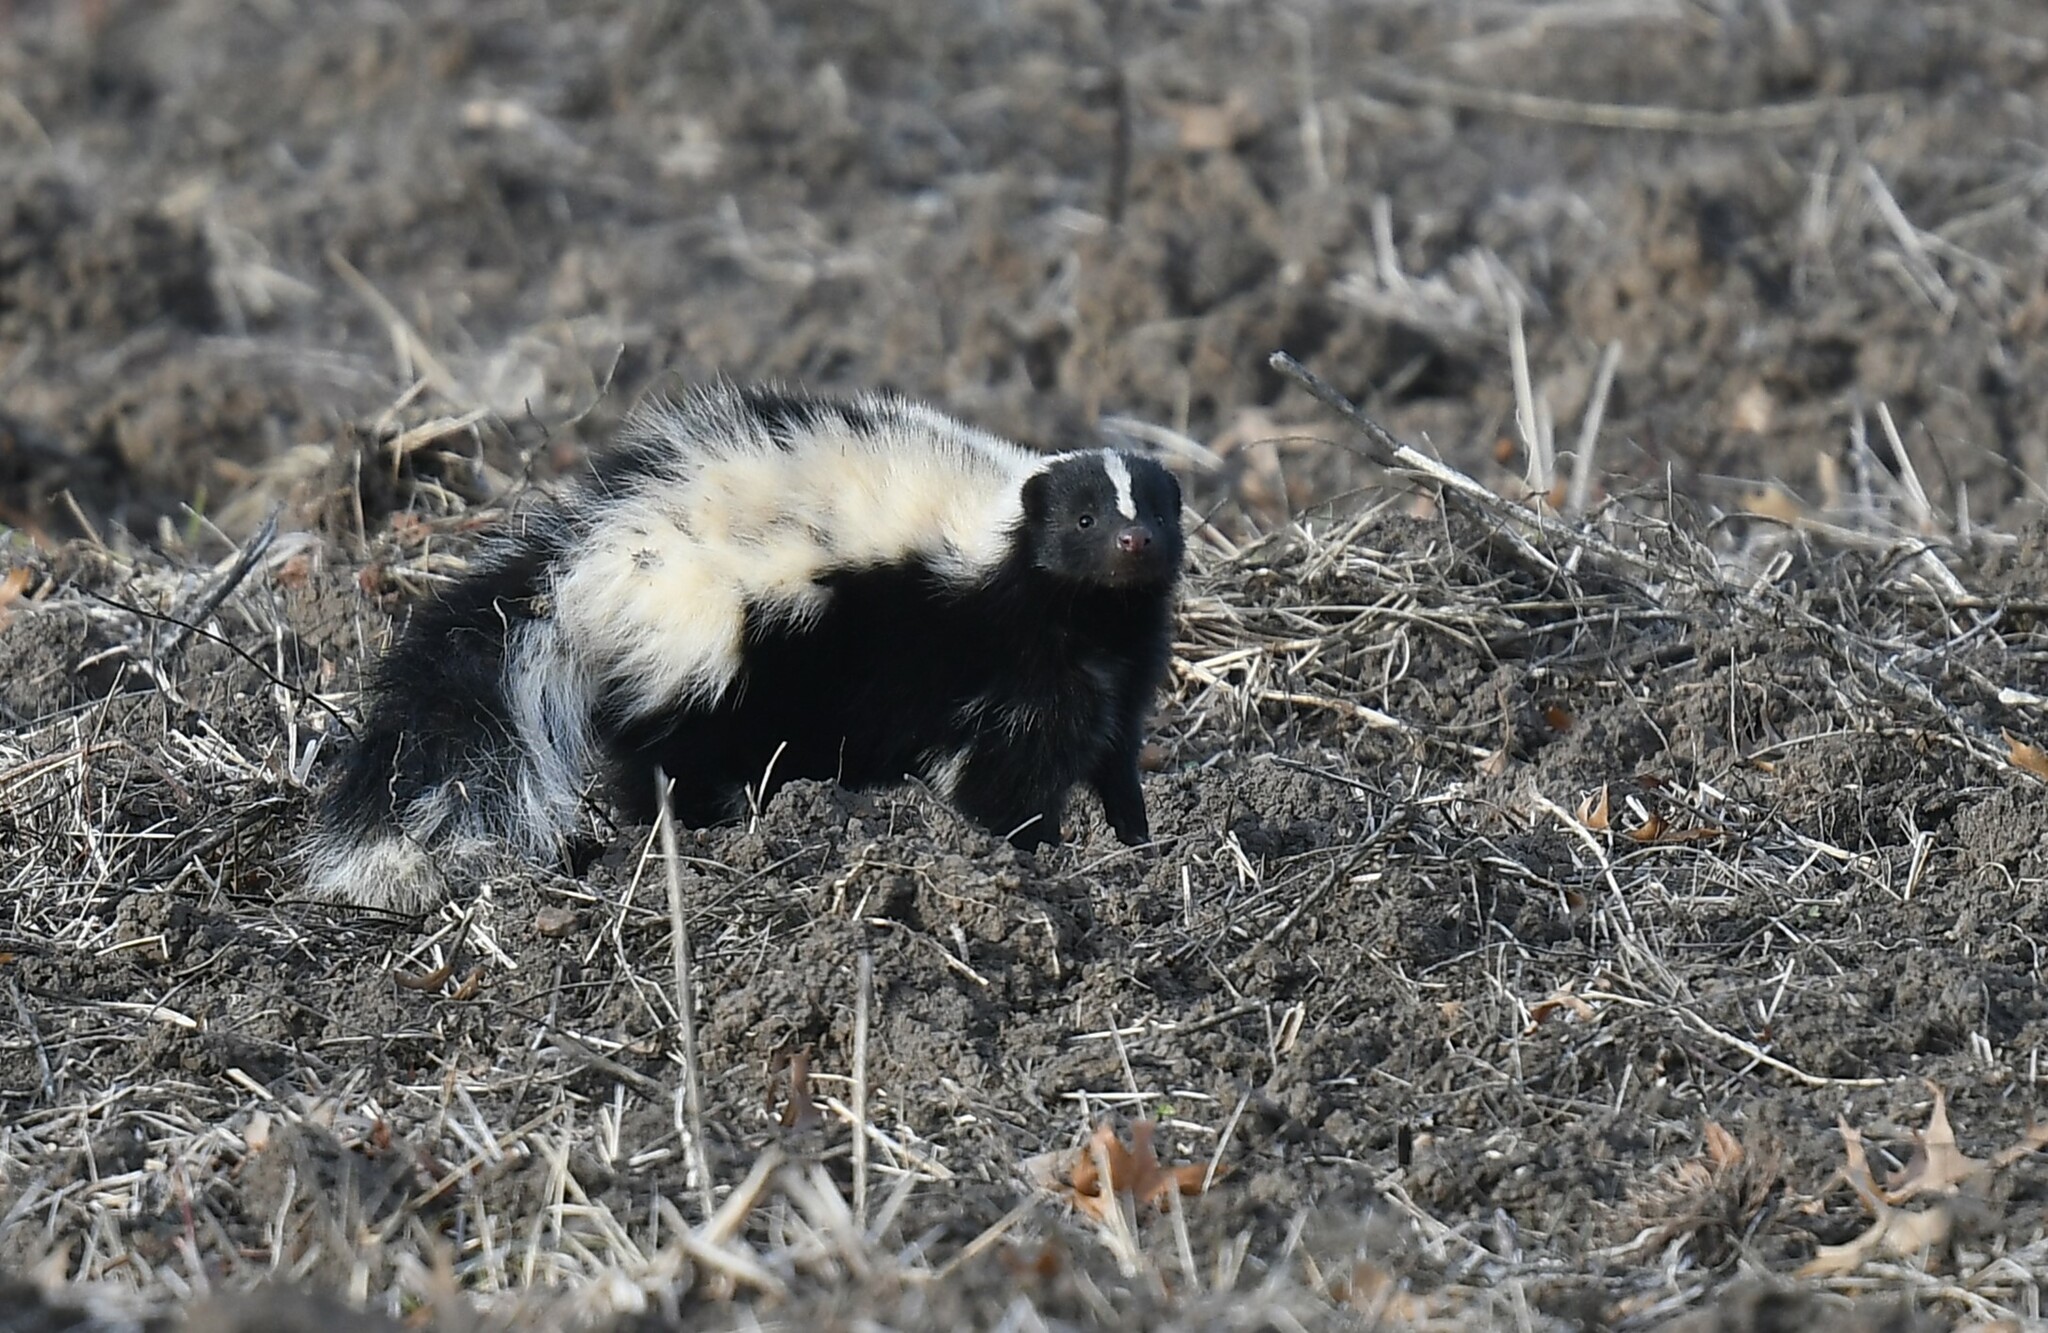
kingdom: Animalia
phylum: Chordata
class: Mammalia
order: Carnivora
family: Mephitidae
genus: Mephitis
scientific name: Mephitis mephitis
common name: Striped skunk
